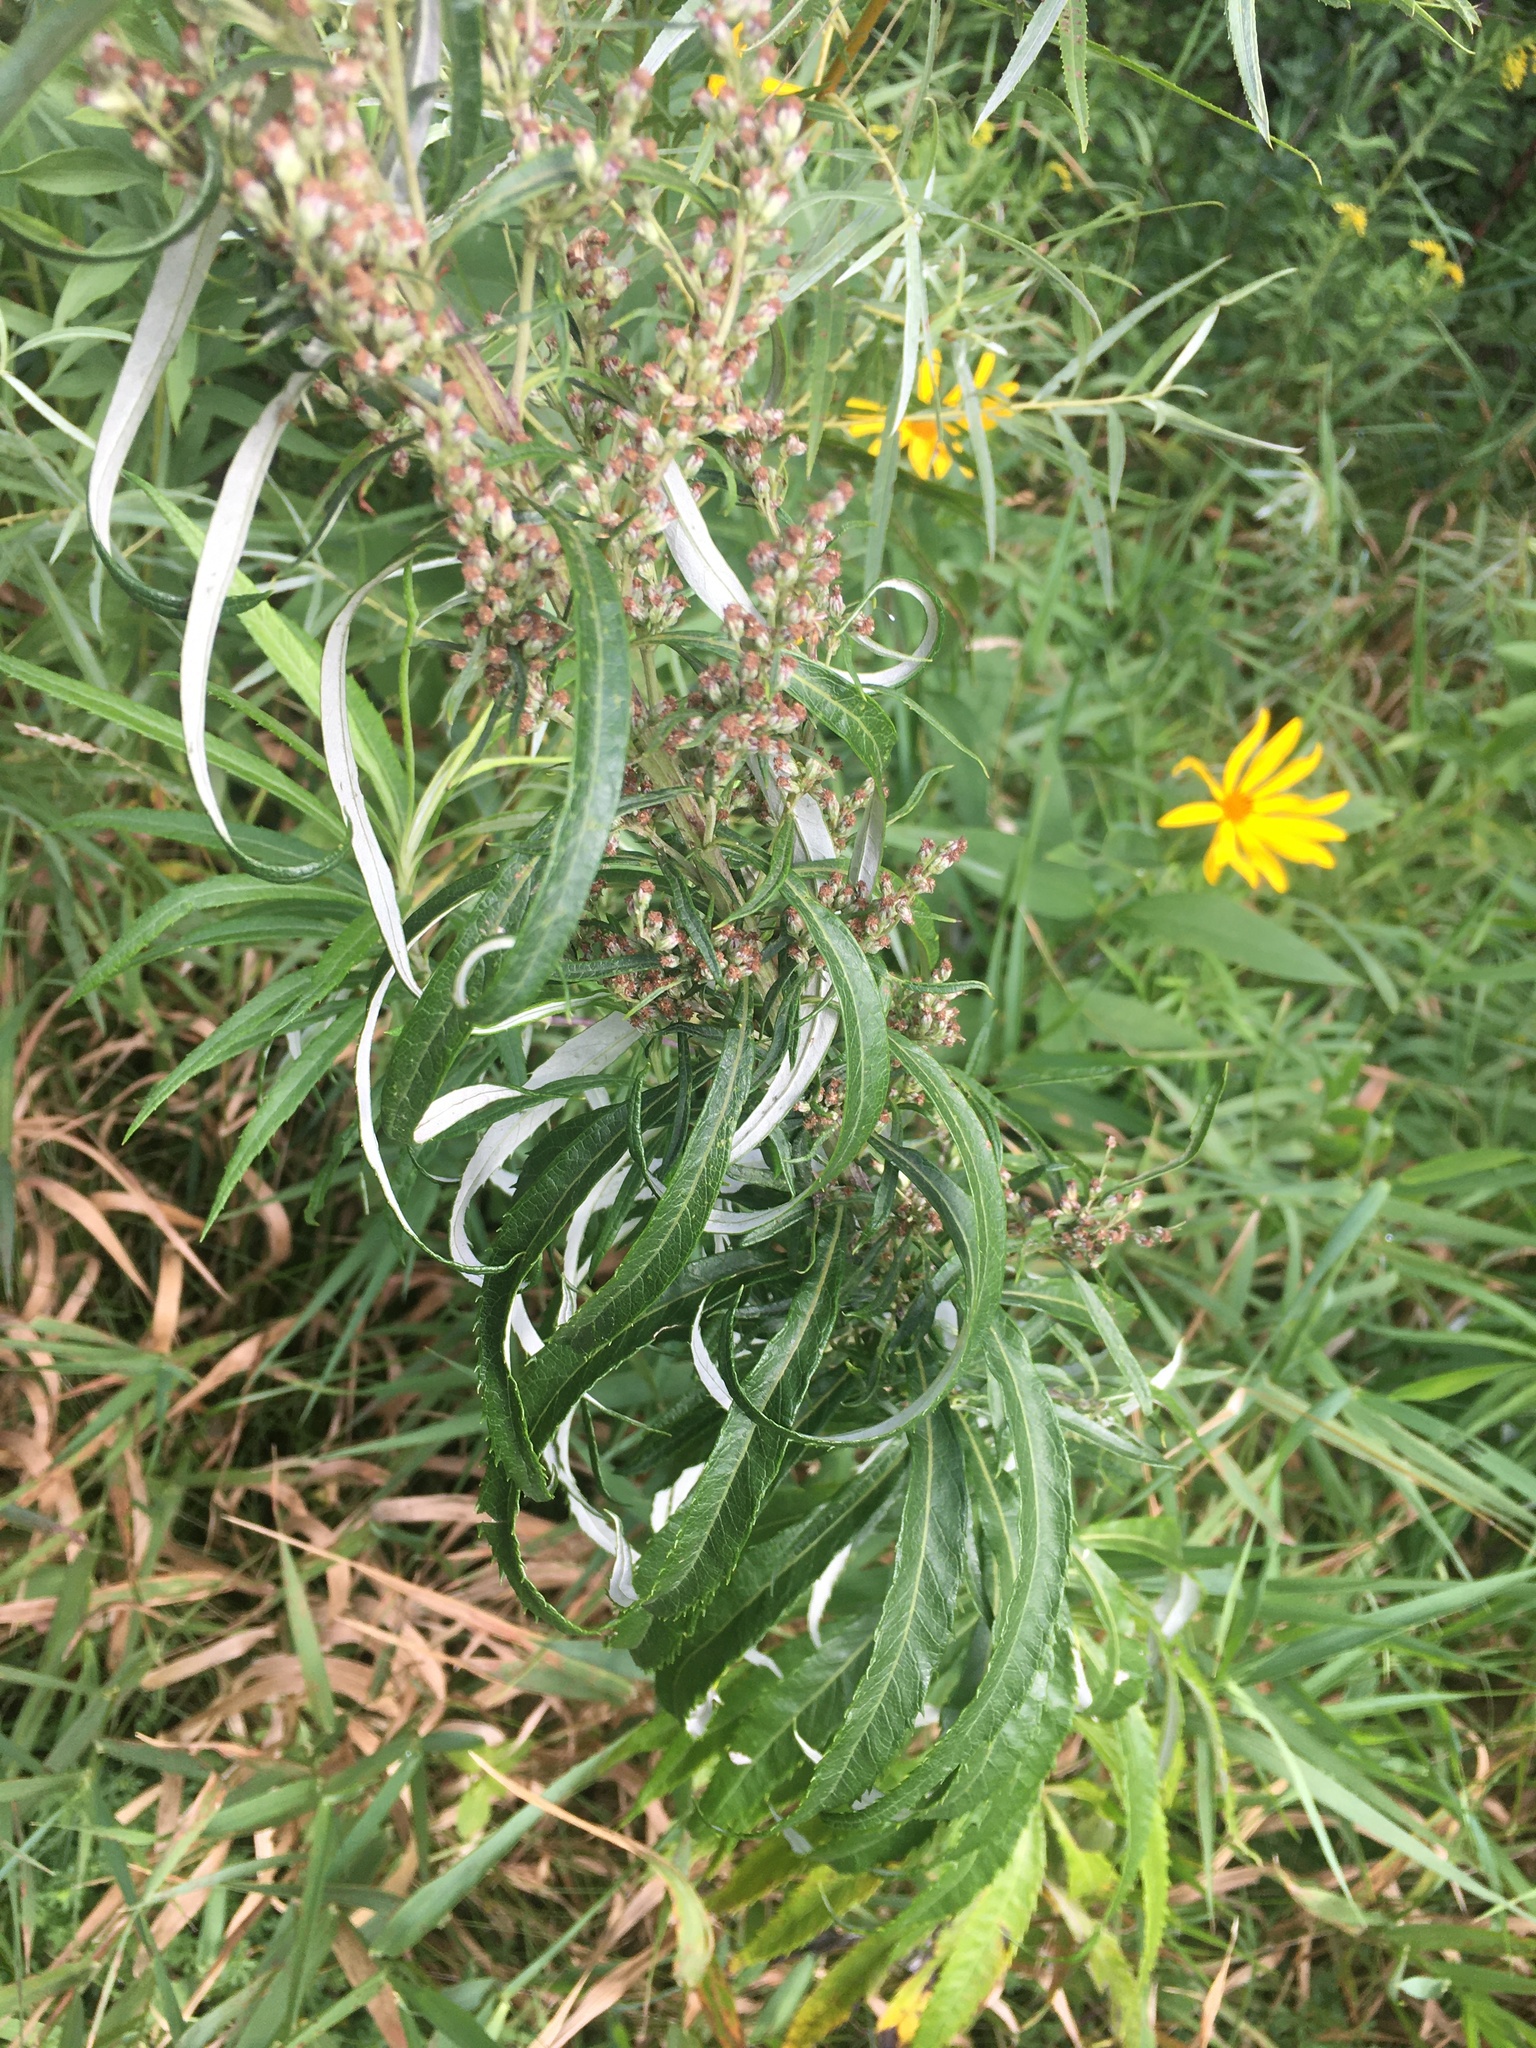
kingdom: Plantae
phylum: Tracheophyta
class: Magnoliopsida
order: Asterales
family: Asteraceae
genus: Artemisia
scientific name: Artemisia serrata
